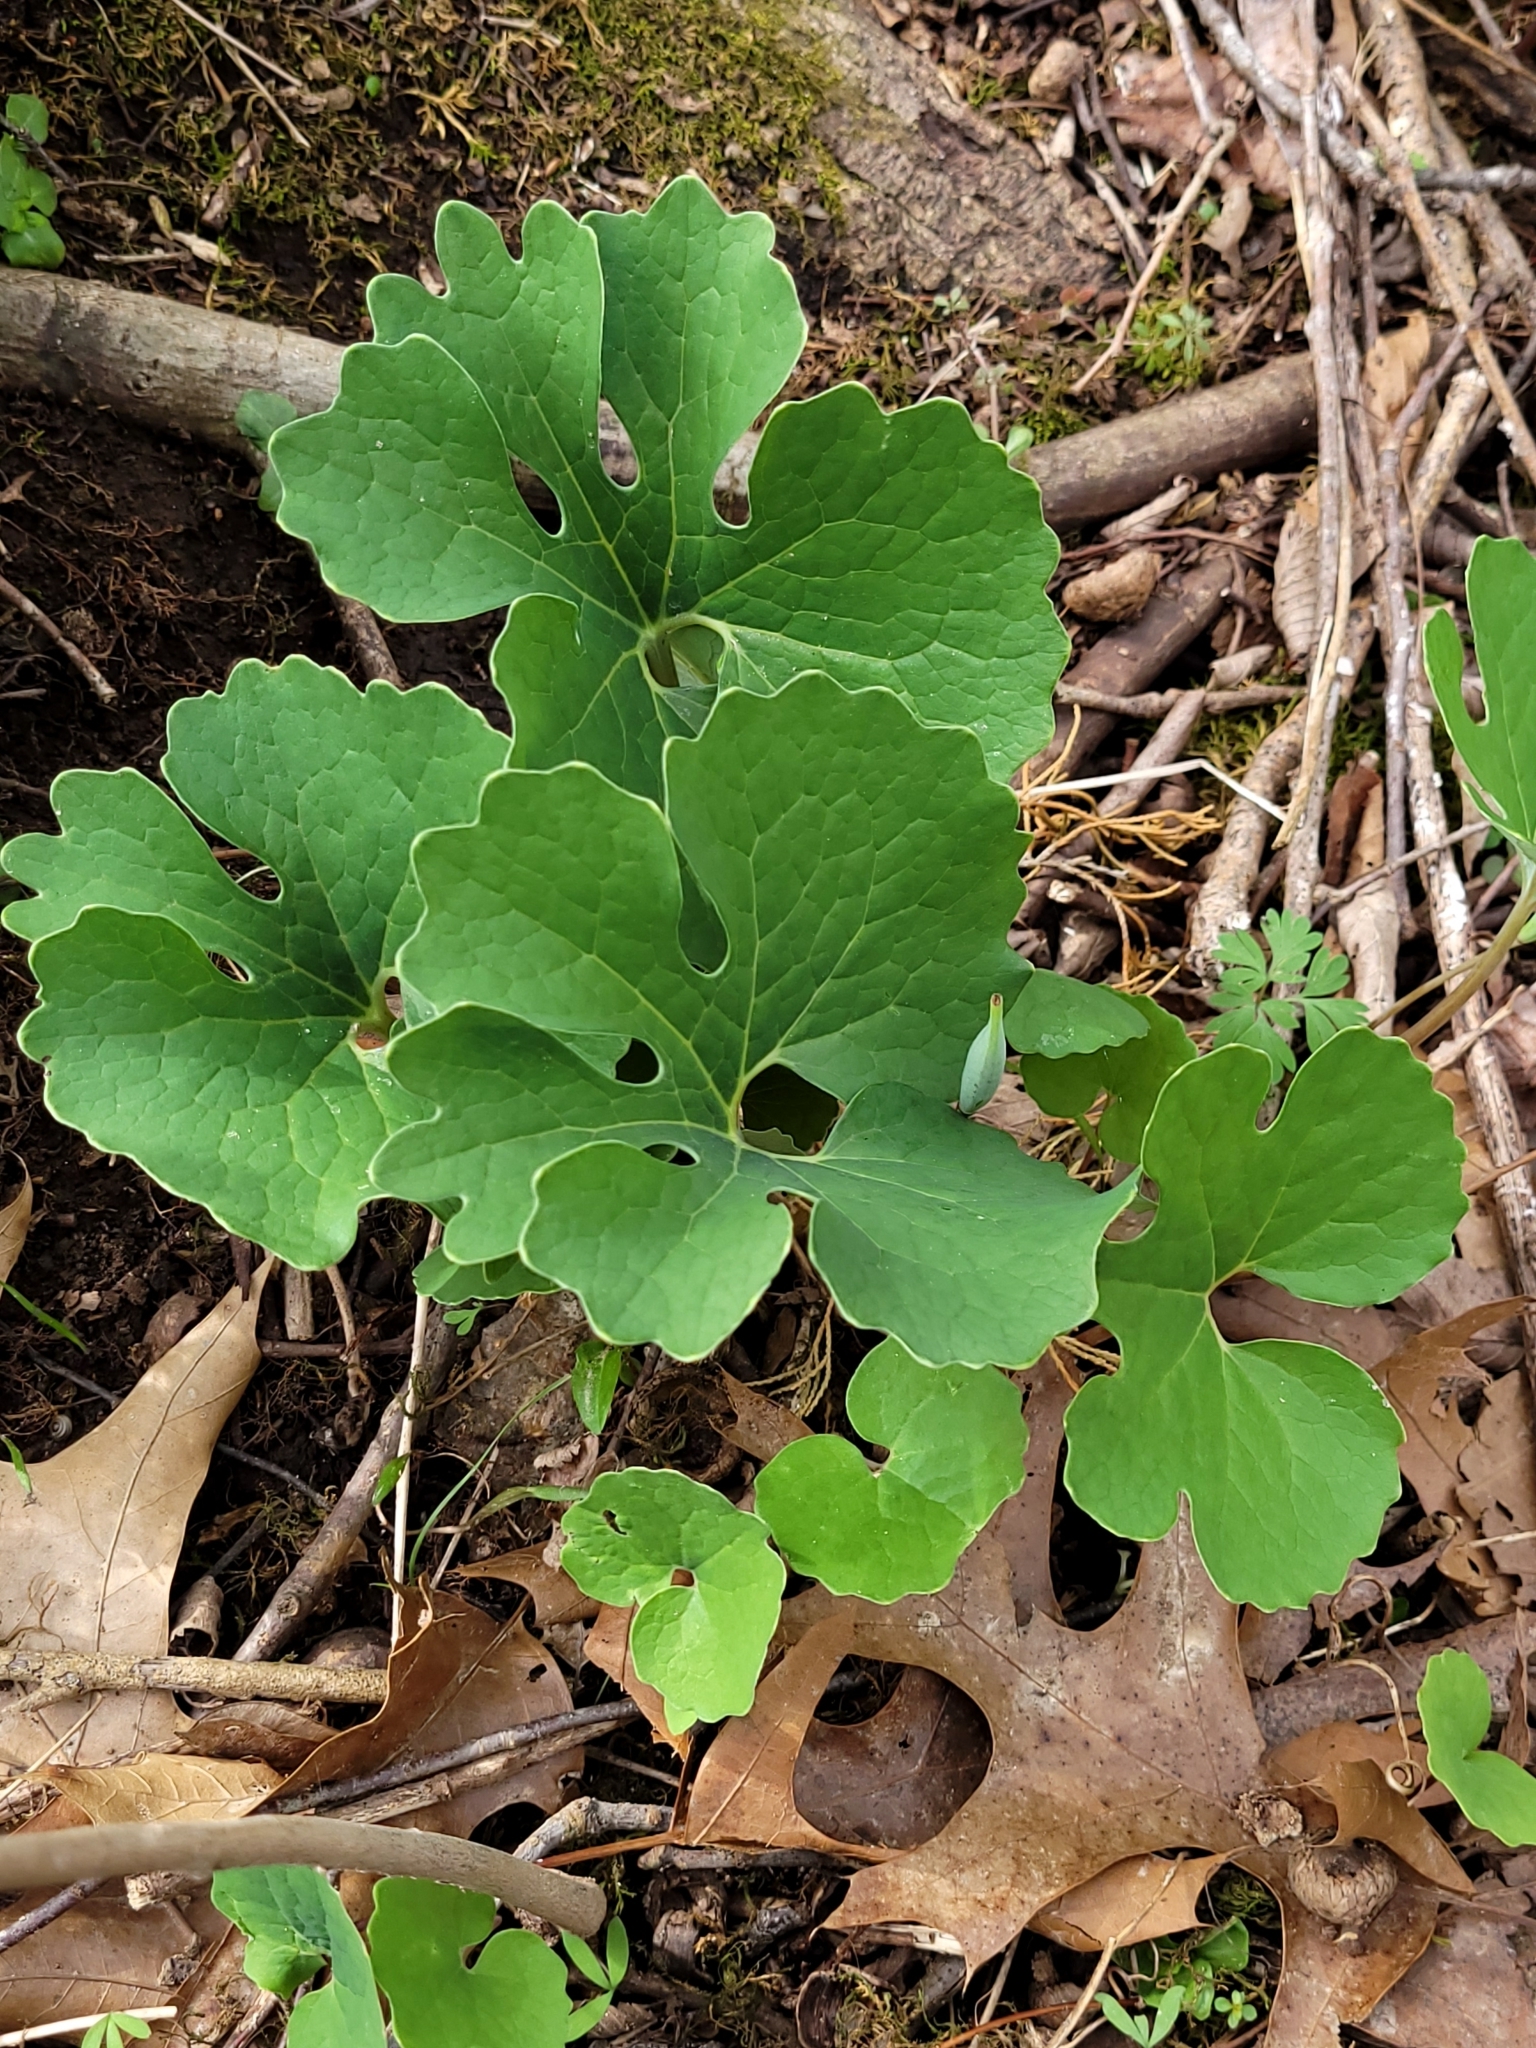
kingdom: Plantae
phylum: Tracheophyta
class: Magnoliopsida
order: Ranunculales
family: Papaveraceae
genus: Sanguinaria
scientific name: Sanguinaria canadensis
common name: Bloodroot
